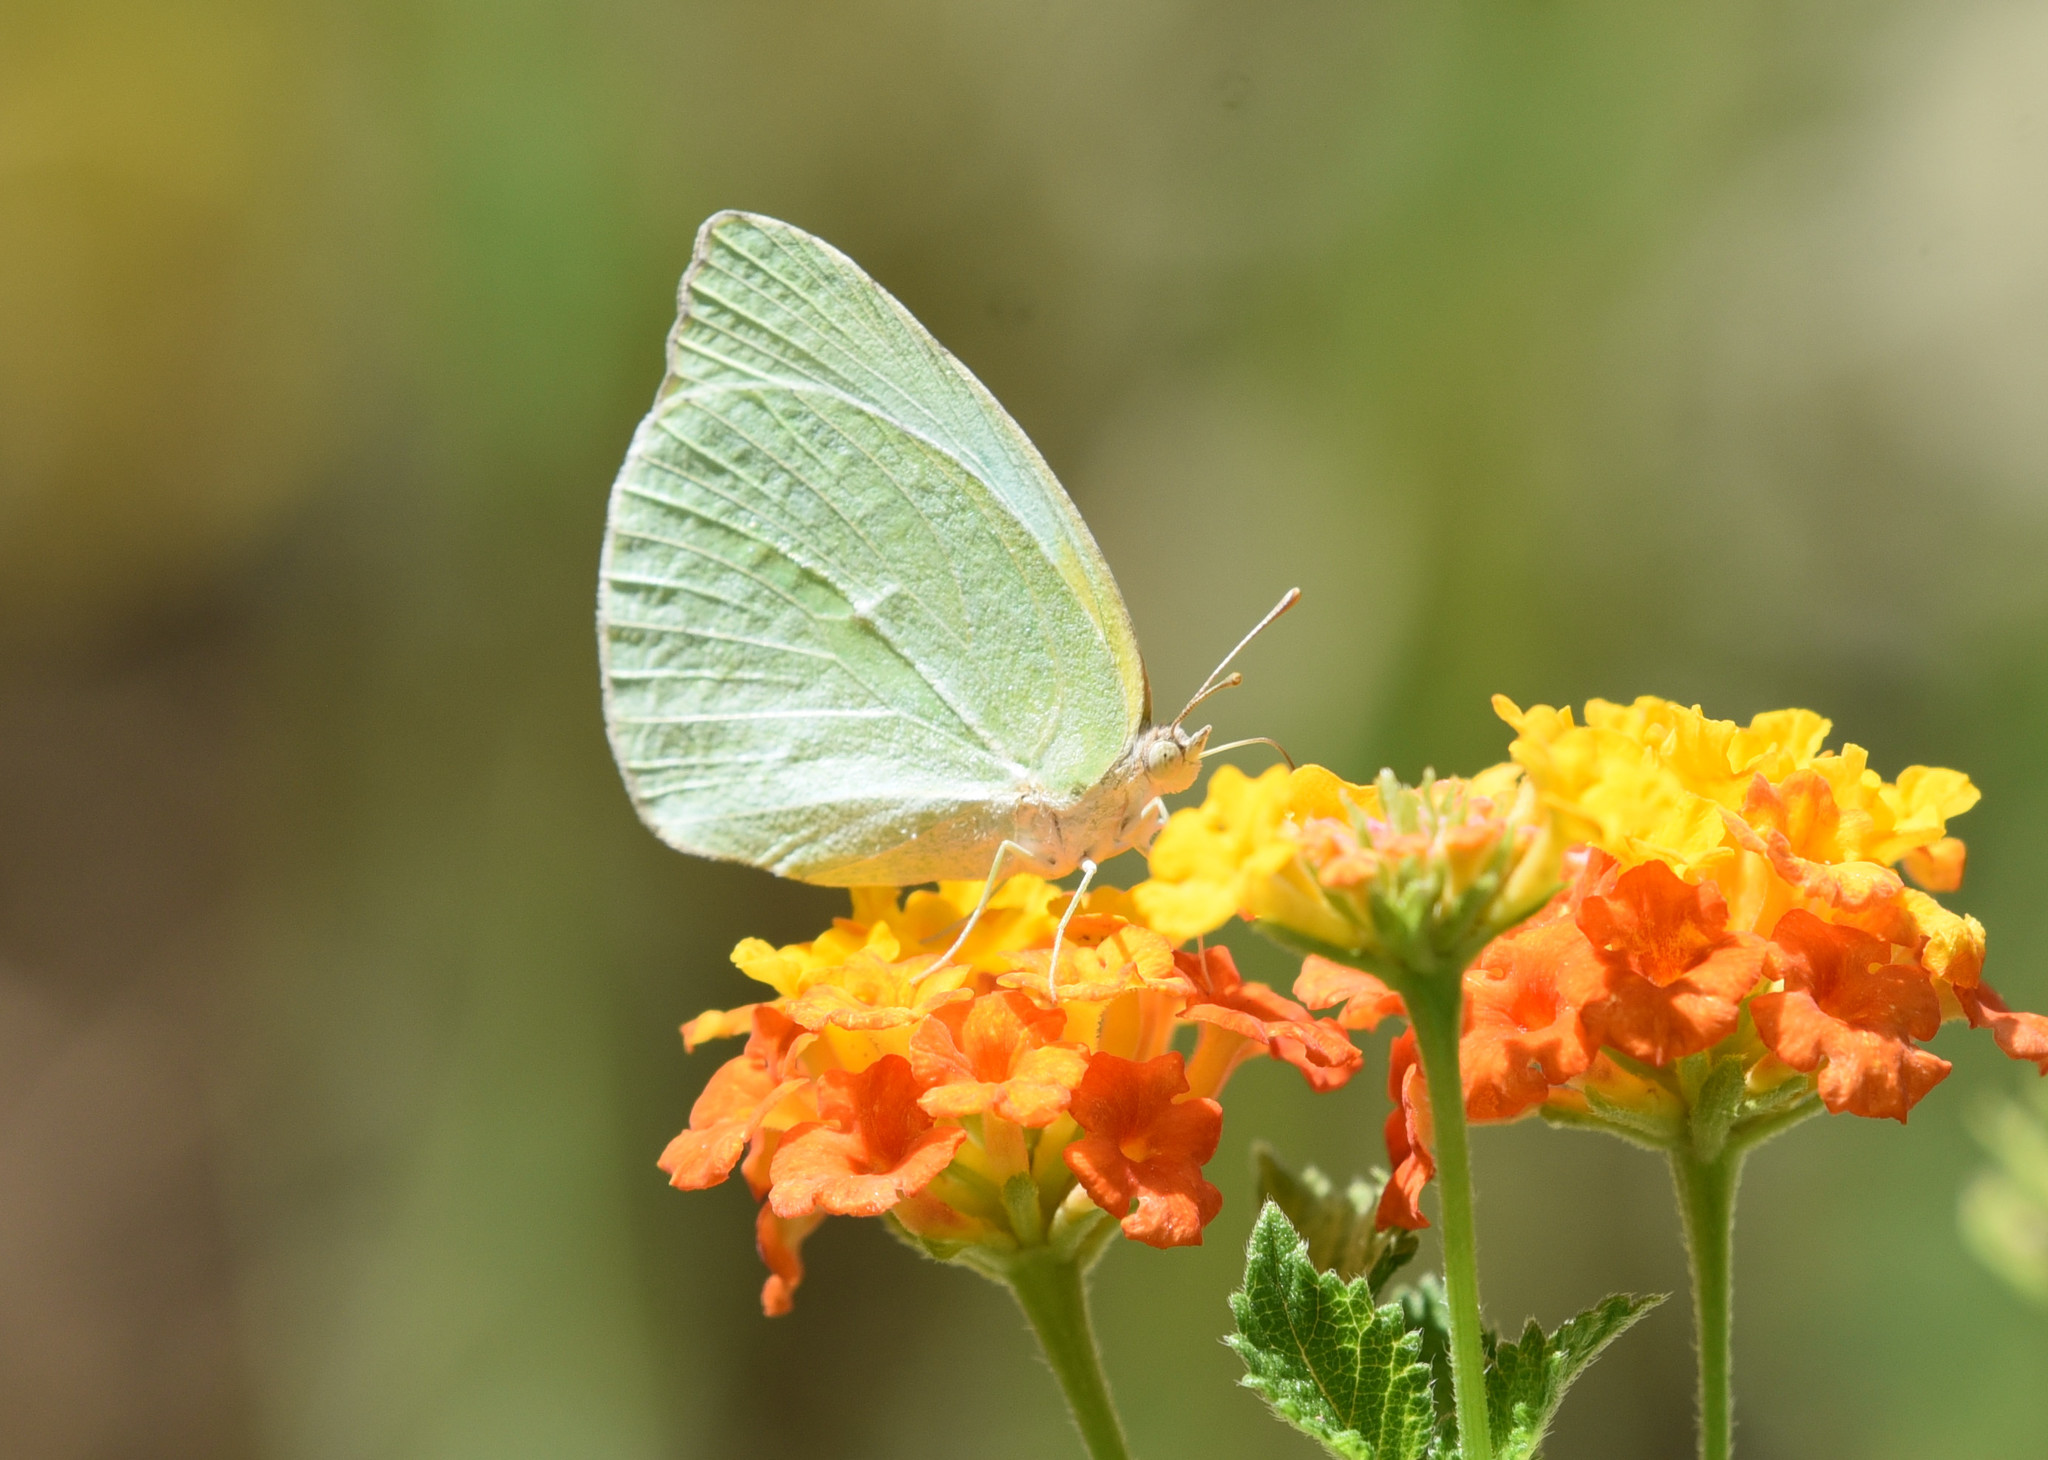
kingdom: Animalia
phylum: Arthropoda
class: Insecta
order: Lepidoptera
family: Pieridae
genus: Kricogonia
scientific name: Kricogonia lyside
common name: Guayacan sulphur,
